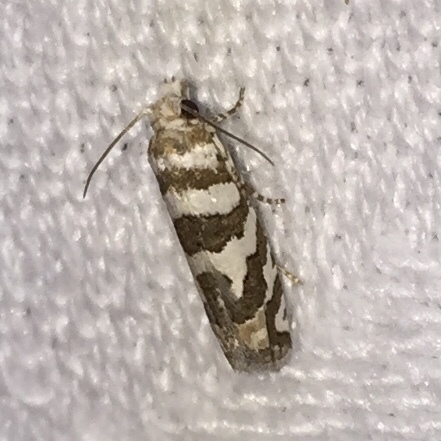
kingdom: Animalia
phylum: Arthropoda
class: Insecta
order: Lepidoptera
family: Tortricidae
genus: Pelochrista
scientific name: Pelochrista robinsonana
